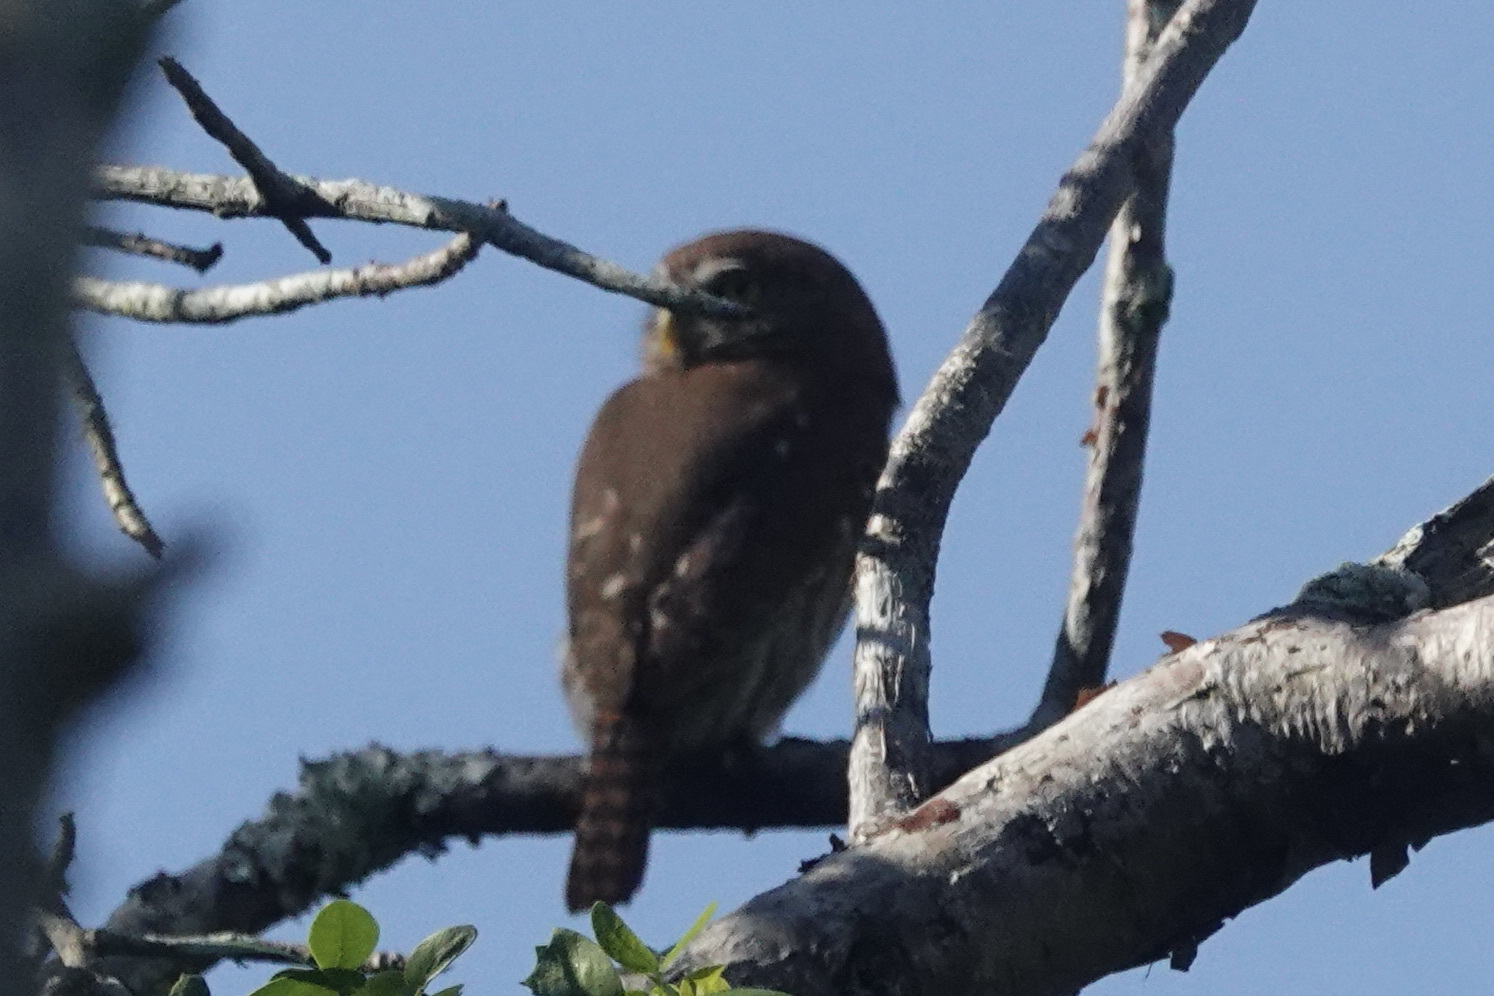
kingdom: Animalia
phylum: Chordata
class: Aves
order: Strigiformes
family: Strigidae
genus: Glaucidium
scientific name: Glaucidium brasilianum
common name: Ferruginous pygmy-owl
